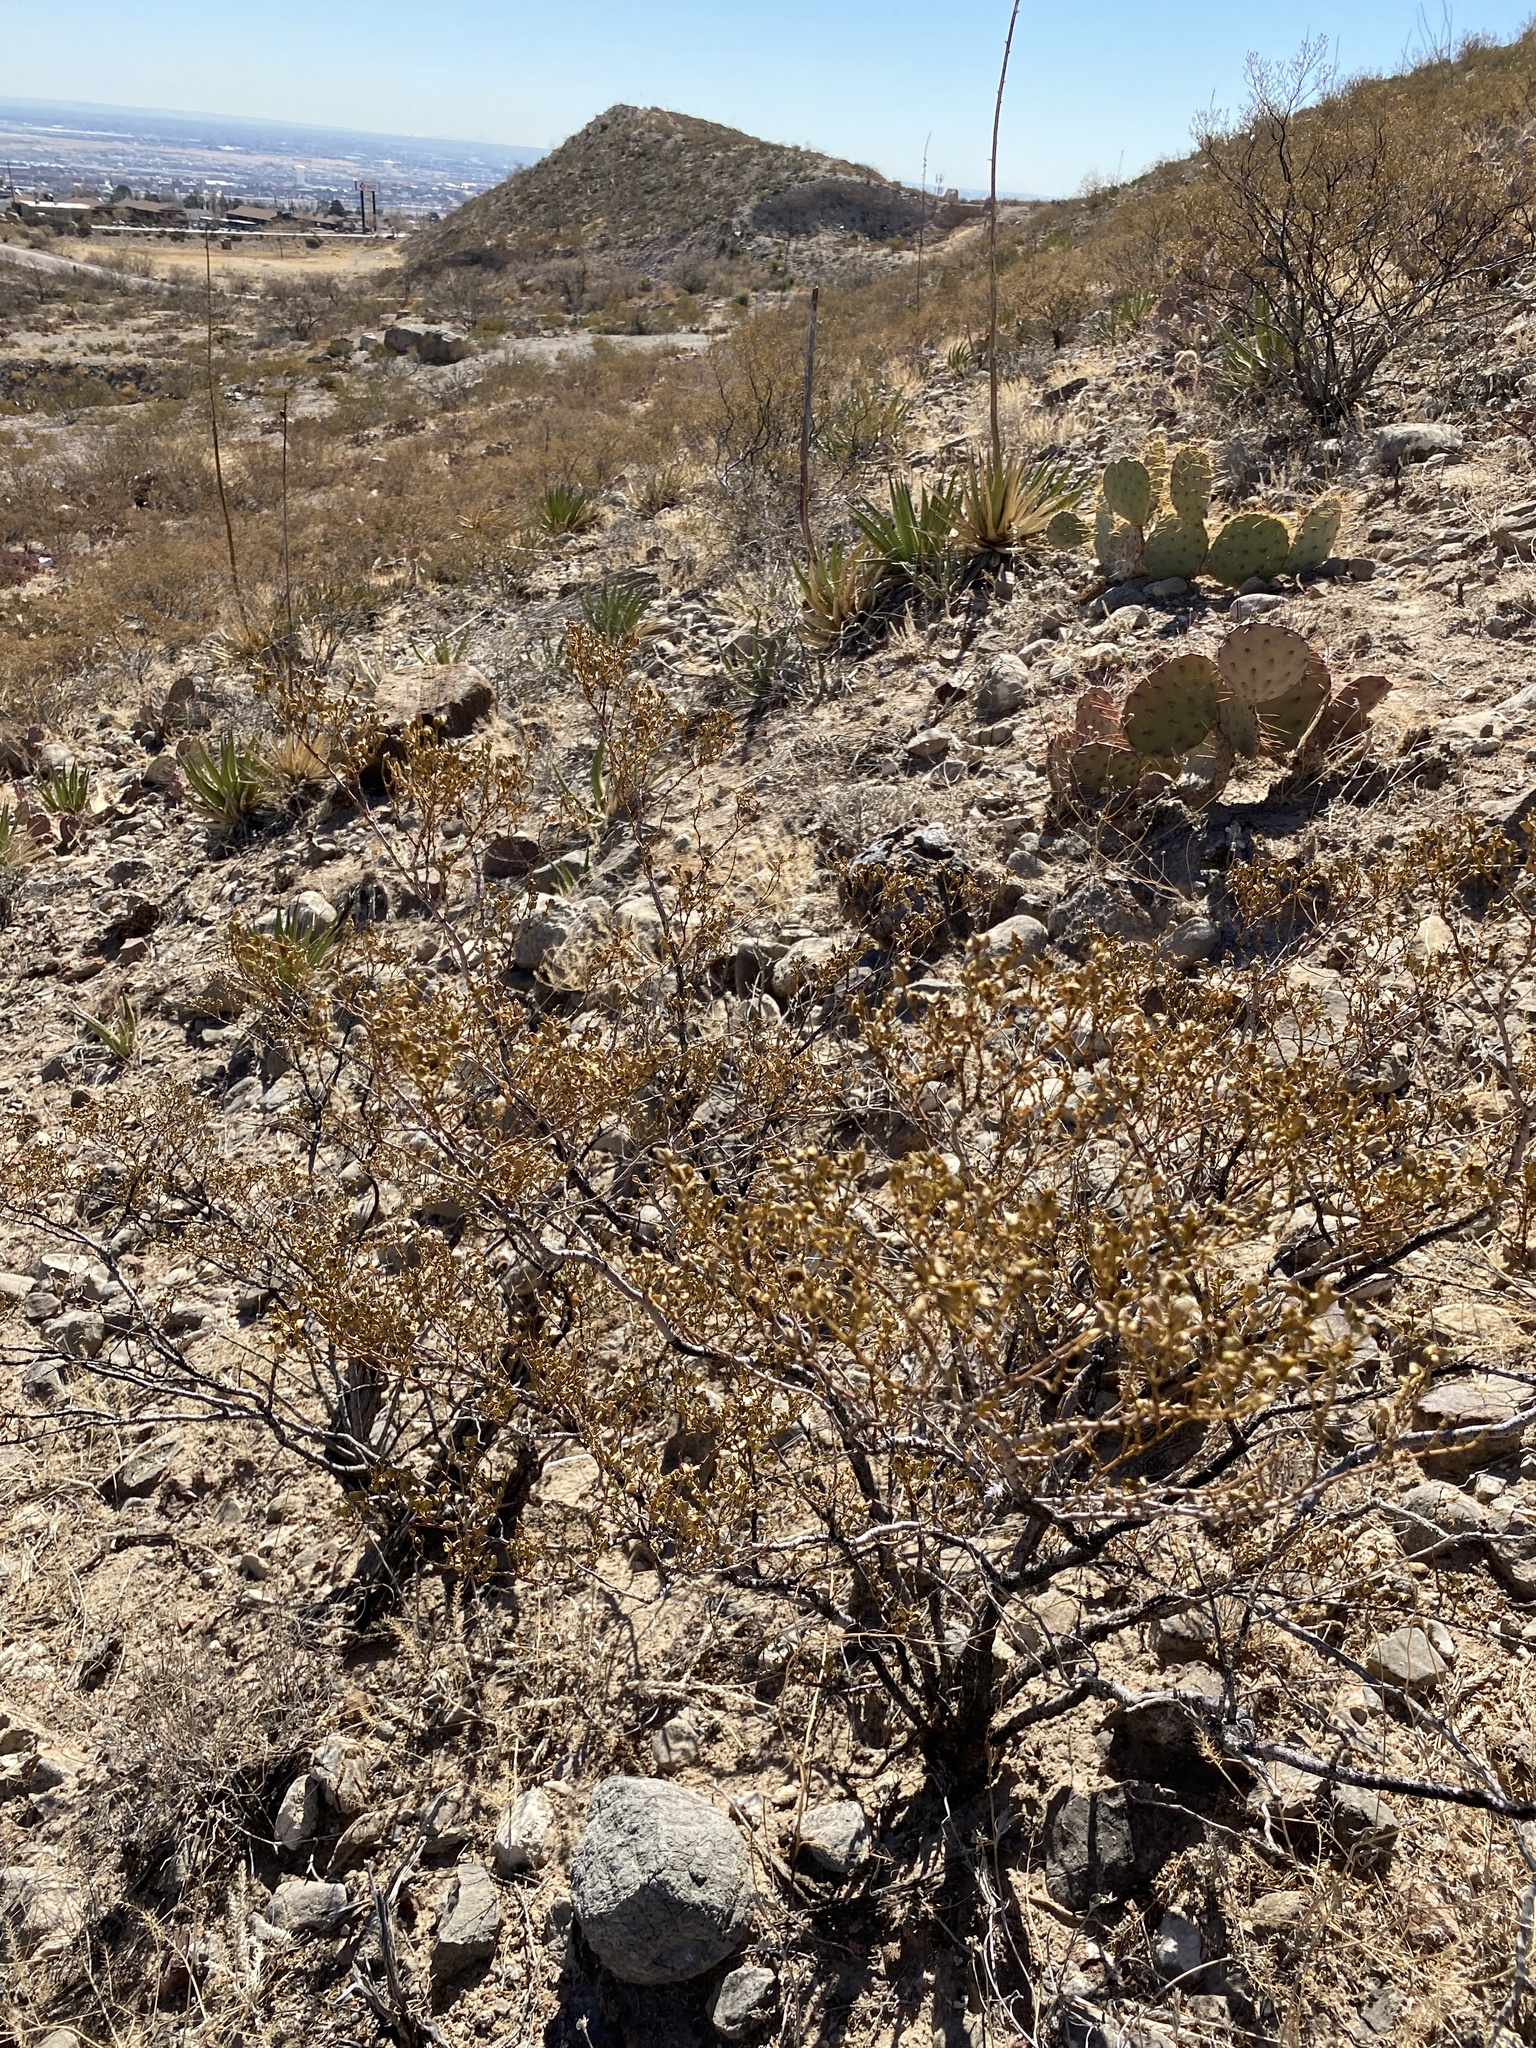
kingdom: Plantae
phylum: Tracheophyta
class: Magnoliopsida
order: Zygophyllales
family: Zygophyllaceae
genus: Larrea
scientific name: Larrea tridentata
